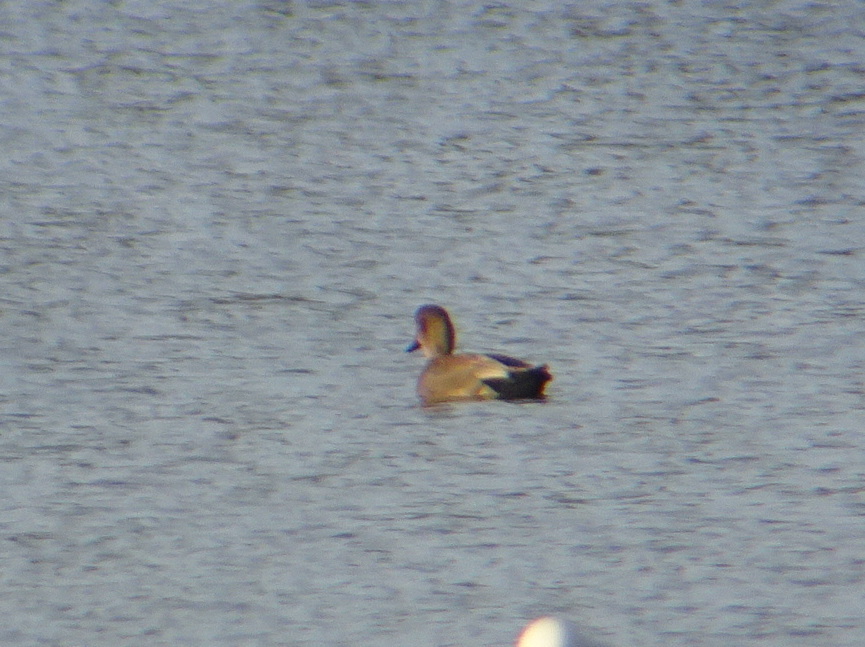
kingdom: Animalia
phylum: Chordata
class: Aves
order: Anseriformes
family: Anatidae
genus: Mareca
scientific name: Mareca strepera
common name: Gadwall
